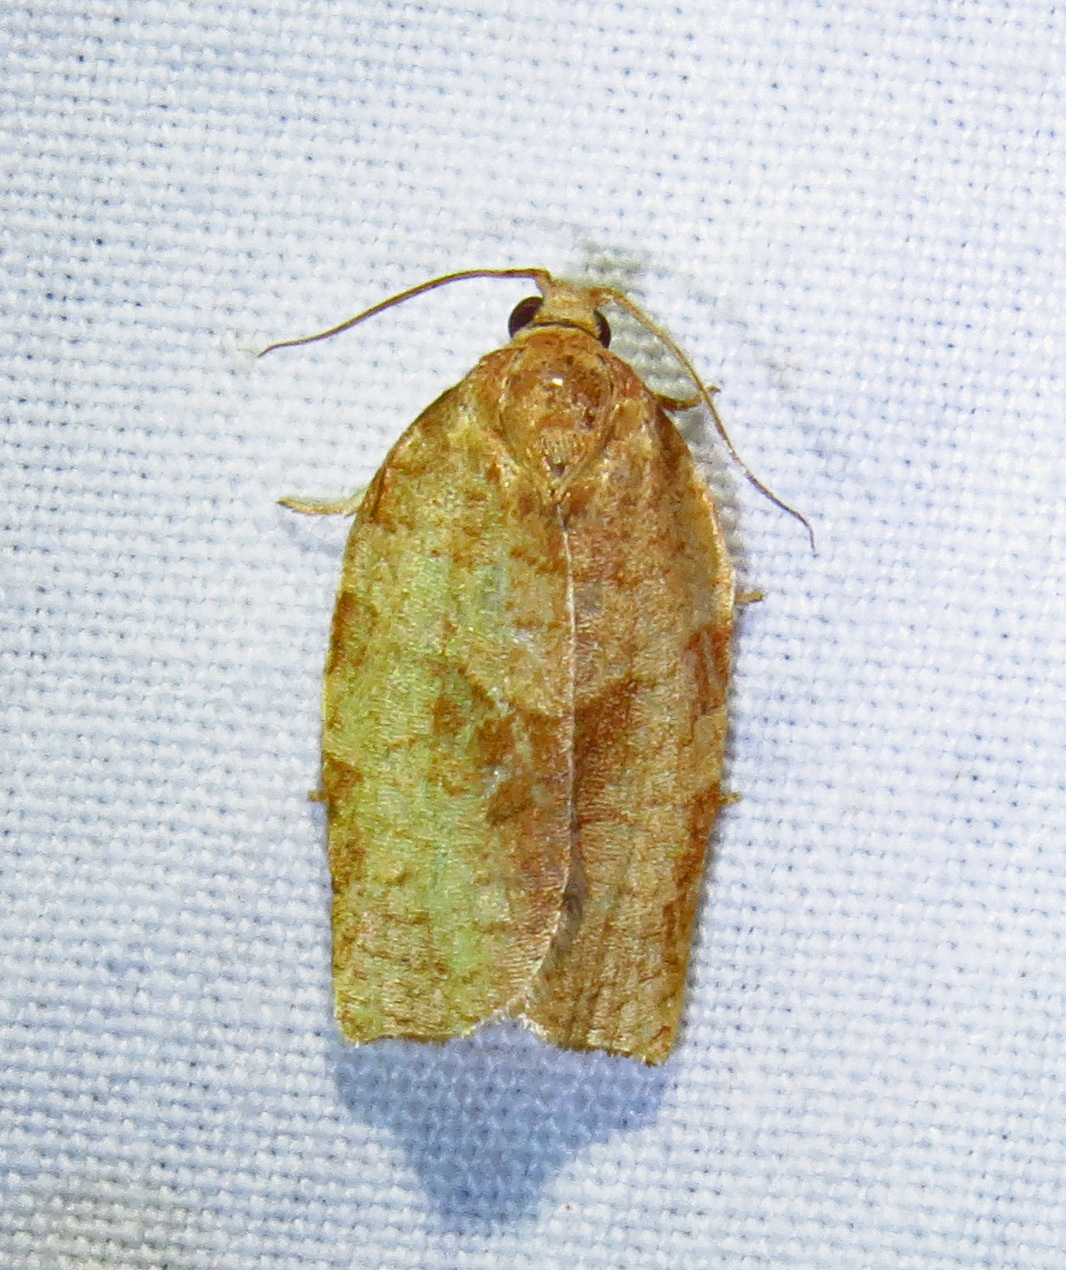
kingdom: Animalia
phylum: Arthropoda
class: Insecta
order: Lepidoptera
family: Tortricidae
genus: Choristoneura
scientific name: Choristoneura rosaceana
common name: Oblique-banded leafroller moth
